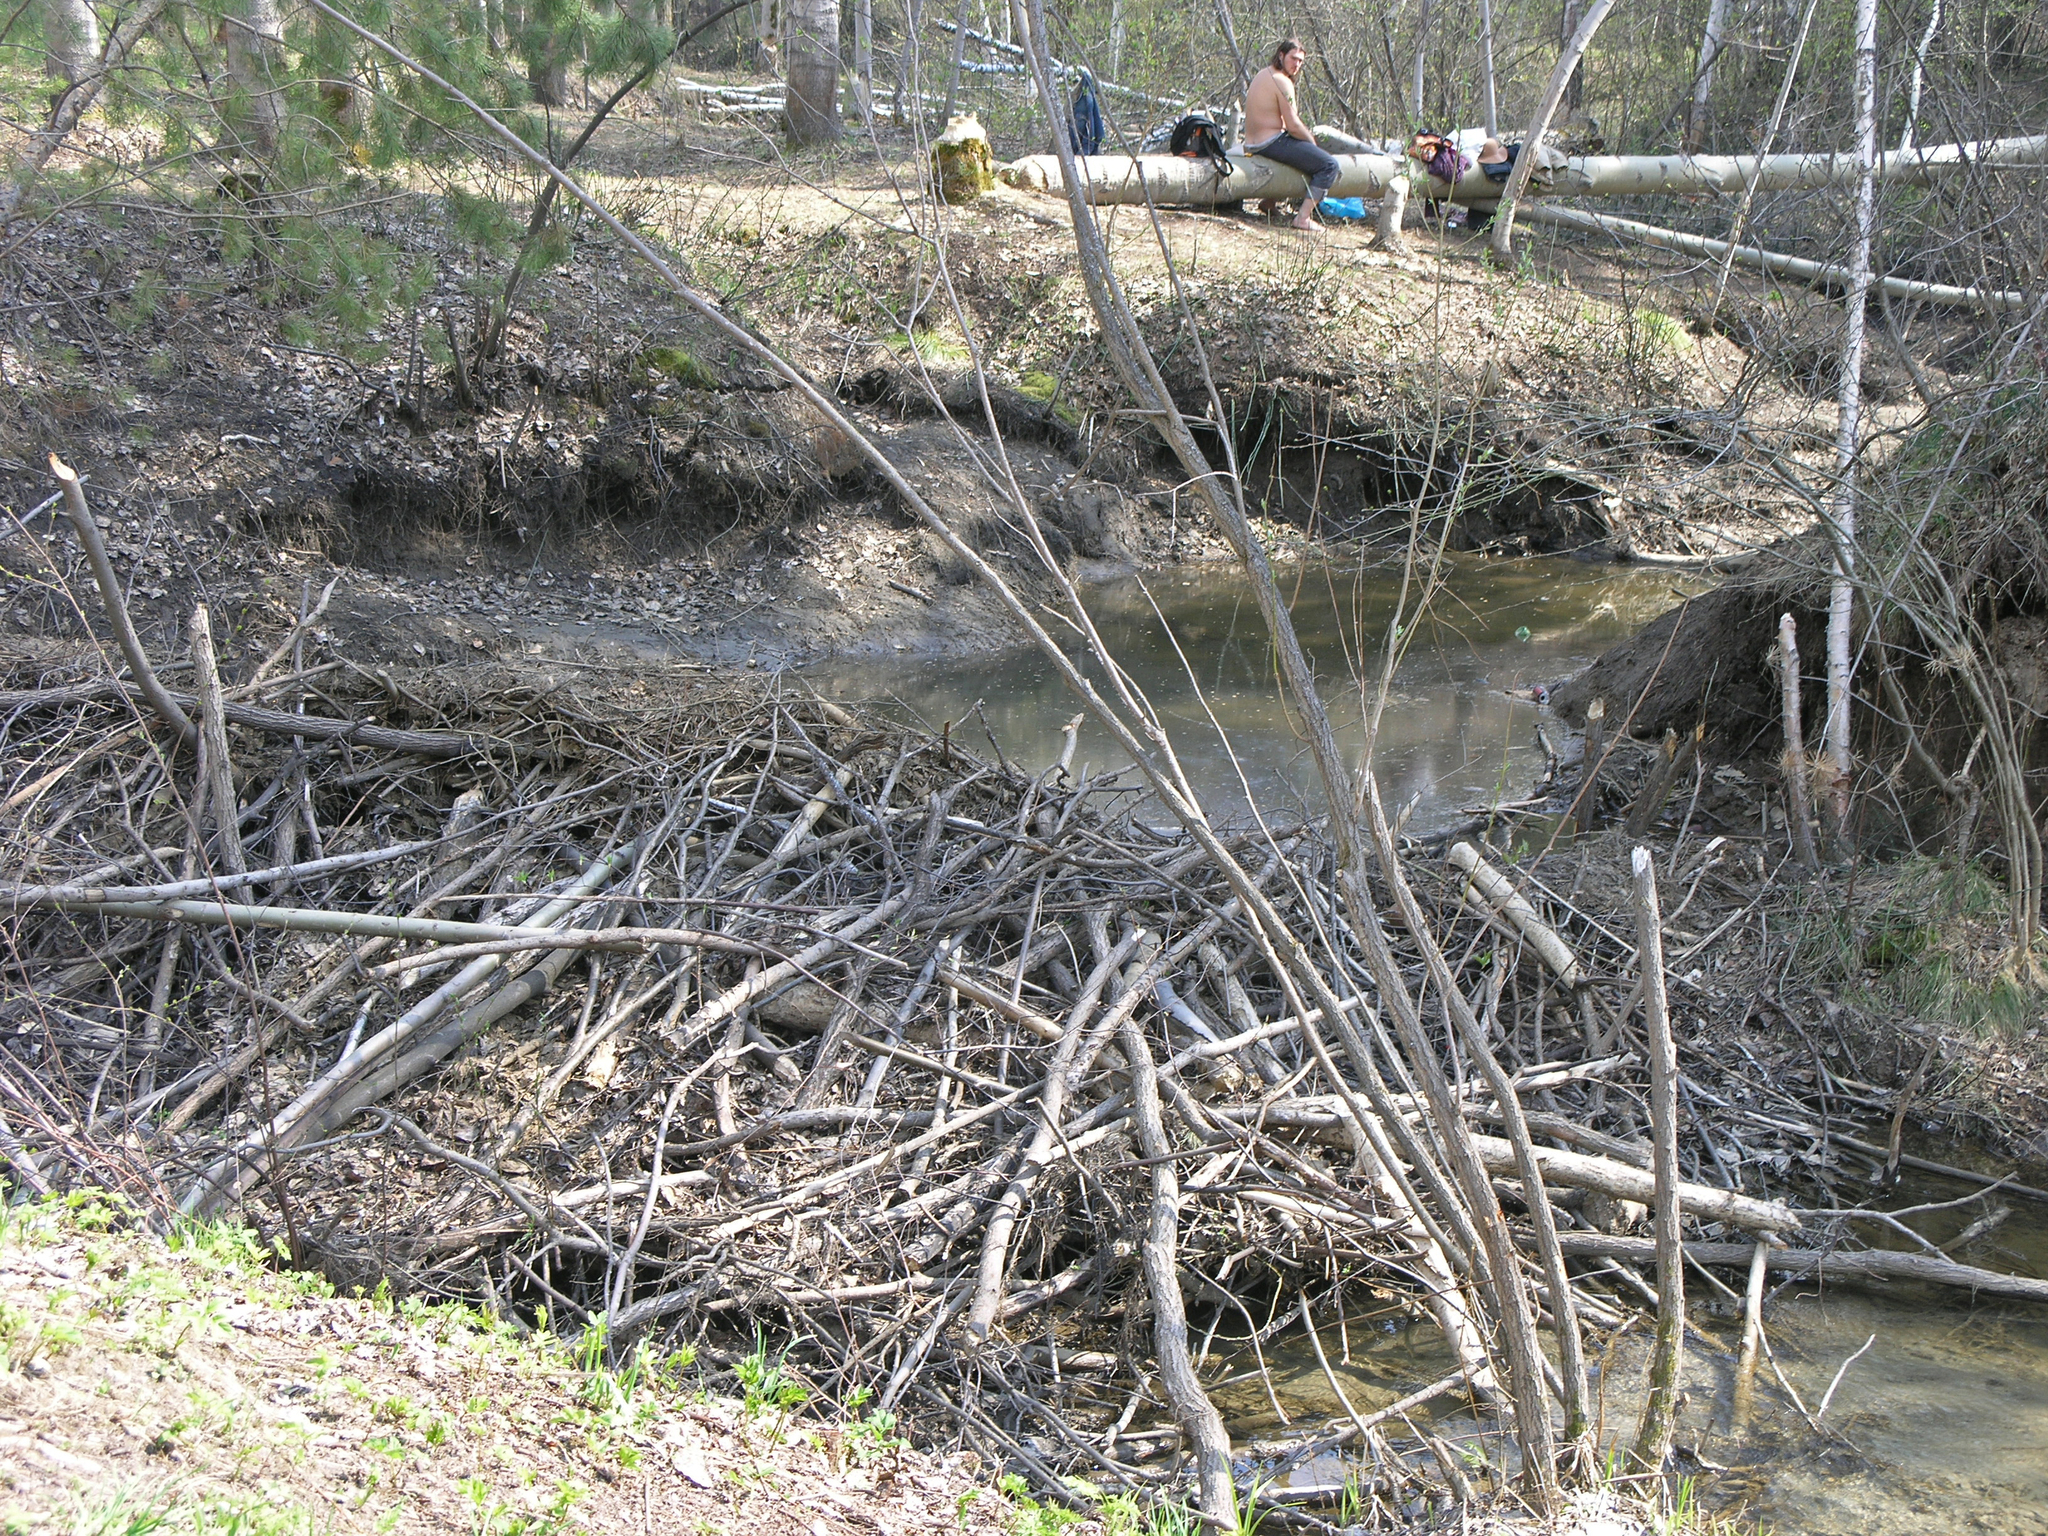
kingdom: Plantae
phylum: Tracheophyta
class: Pinopsida
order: Pinales
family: Pinaceae
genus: Pinus
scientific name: Pinus sylvestris
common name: Scots pine
